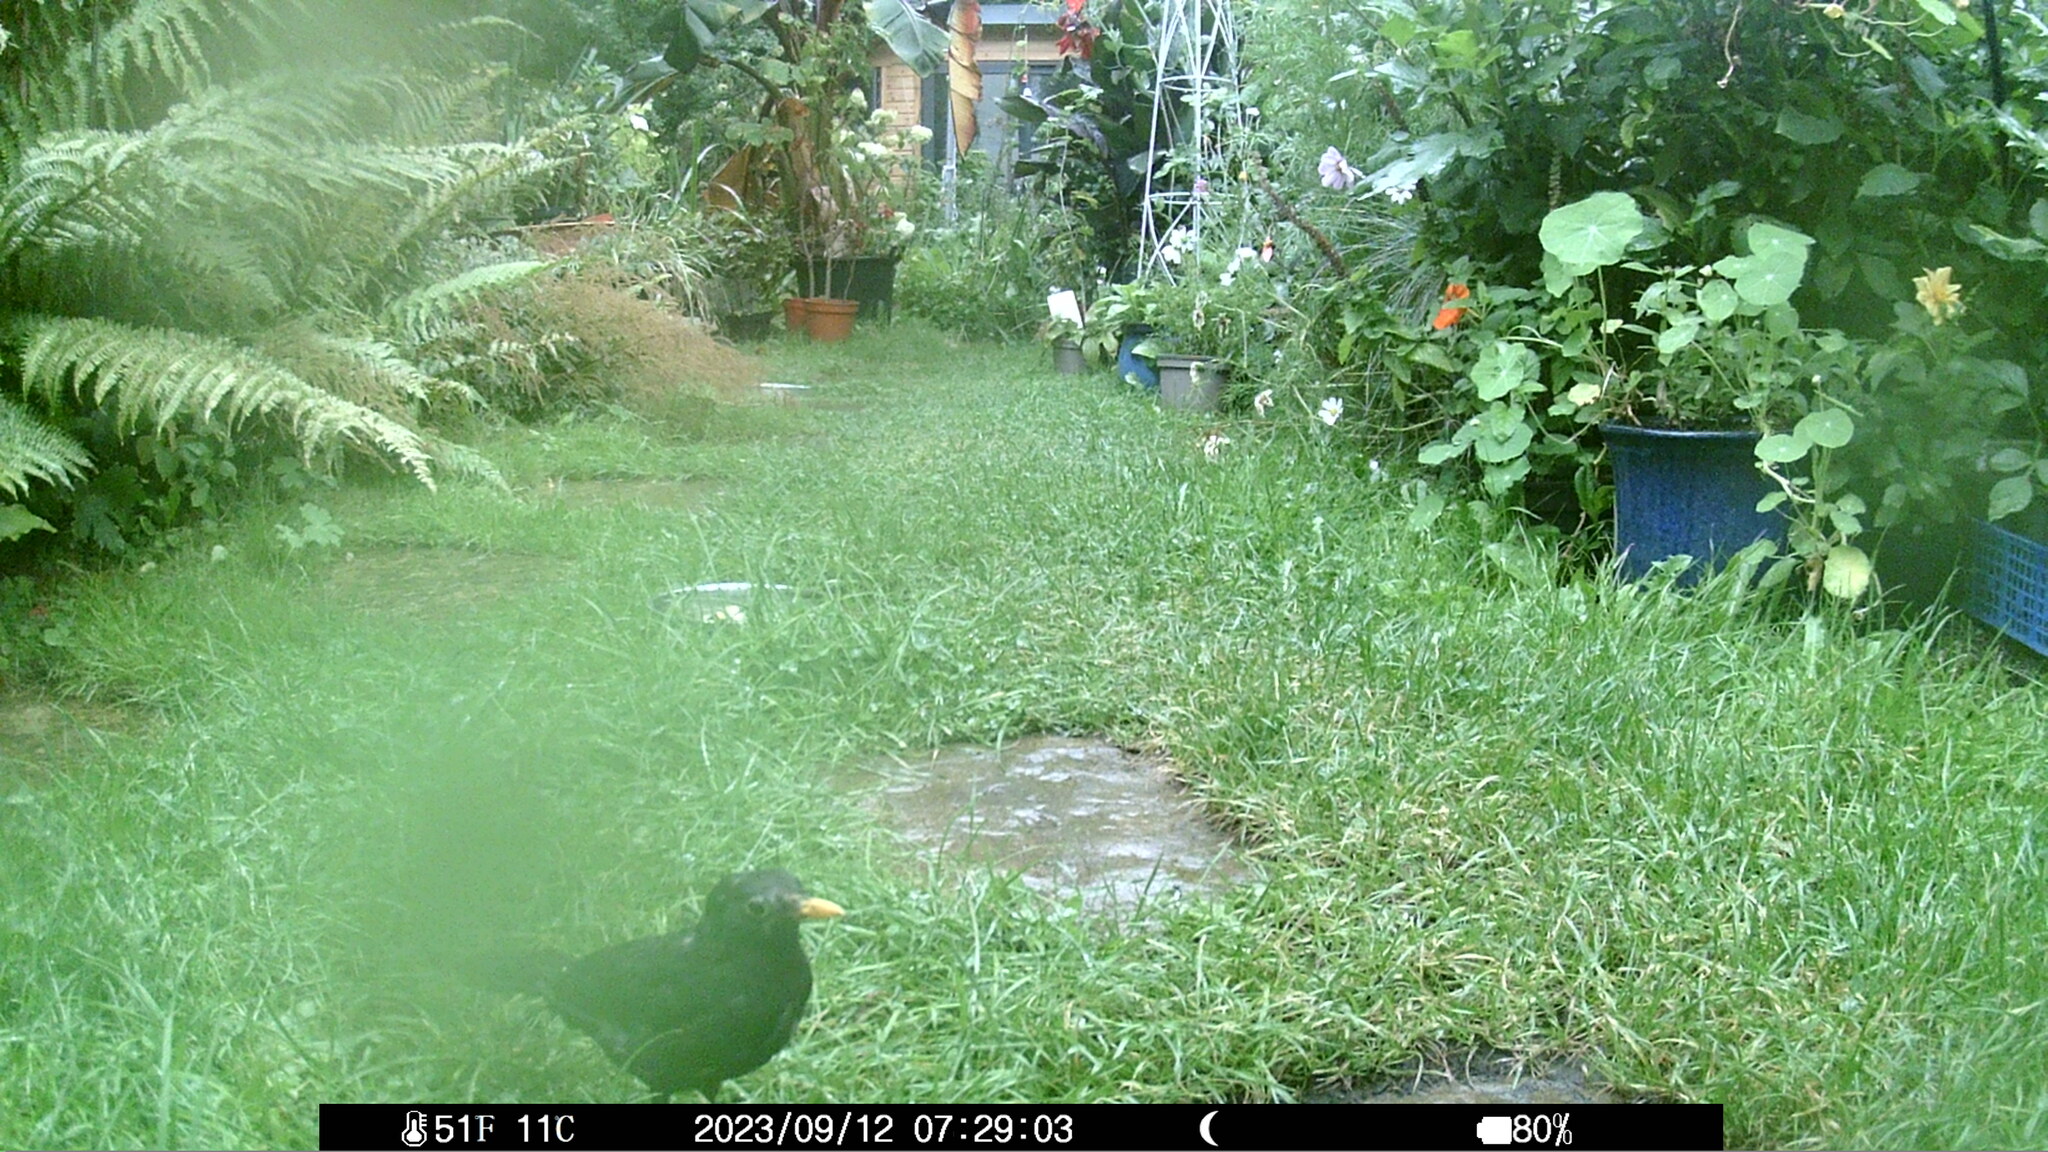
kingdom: Animalia
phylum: Chordata
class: Aves
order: Passeriformes
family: Turdidae
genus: Turdus
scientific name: Turdus merula
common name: Common blackbird
